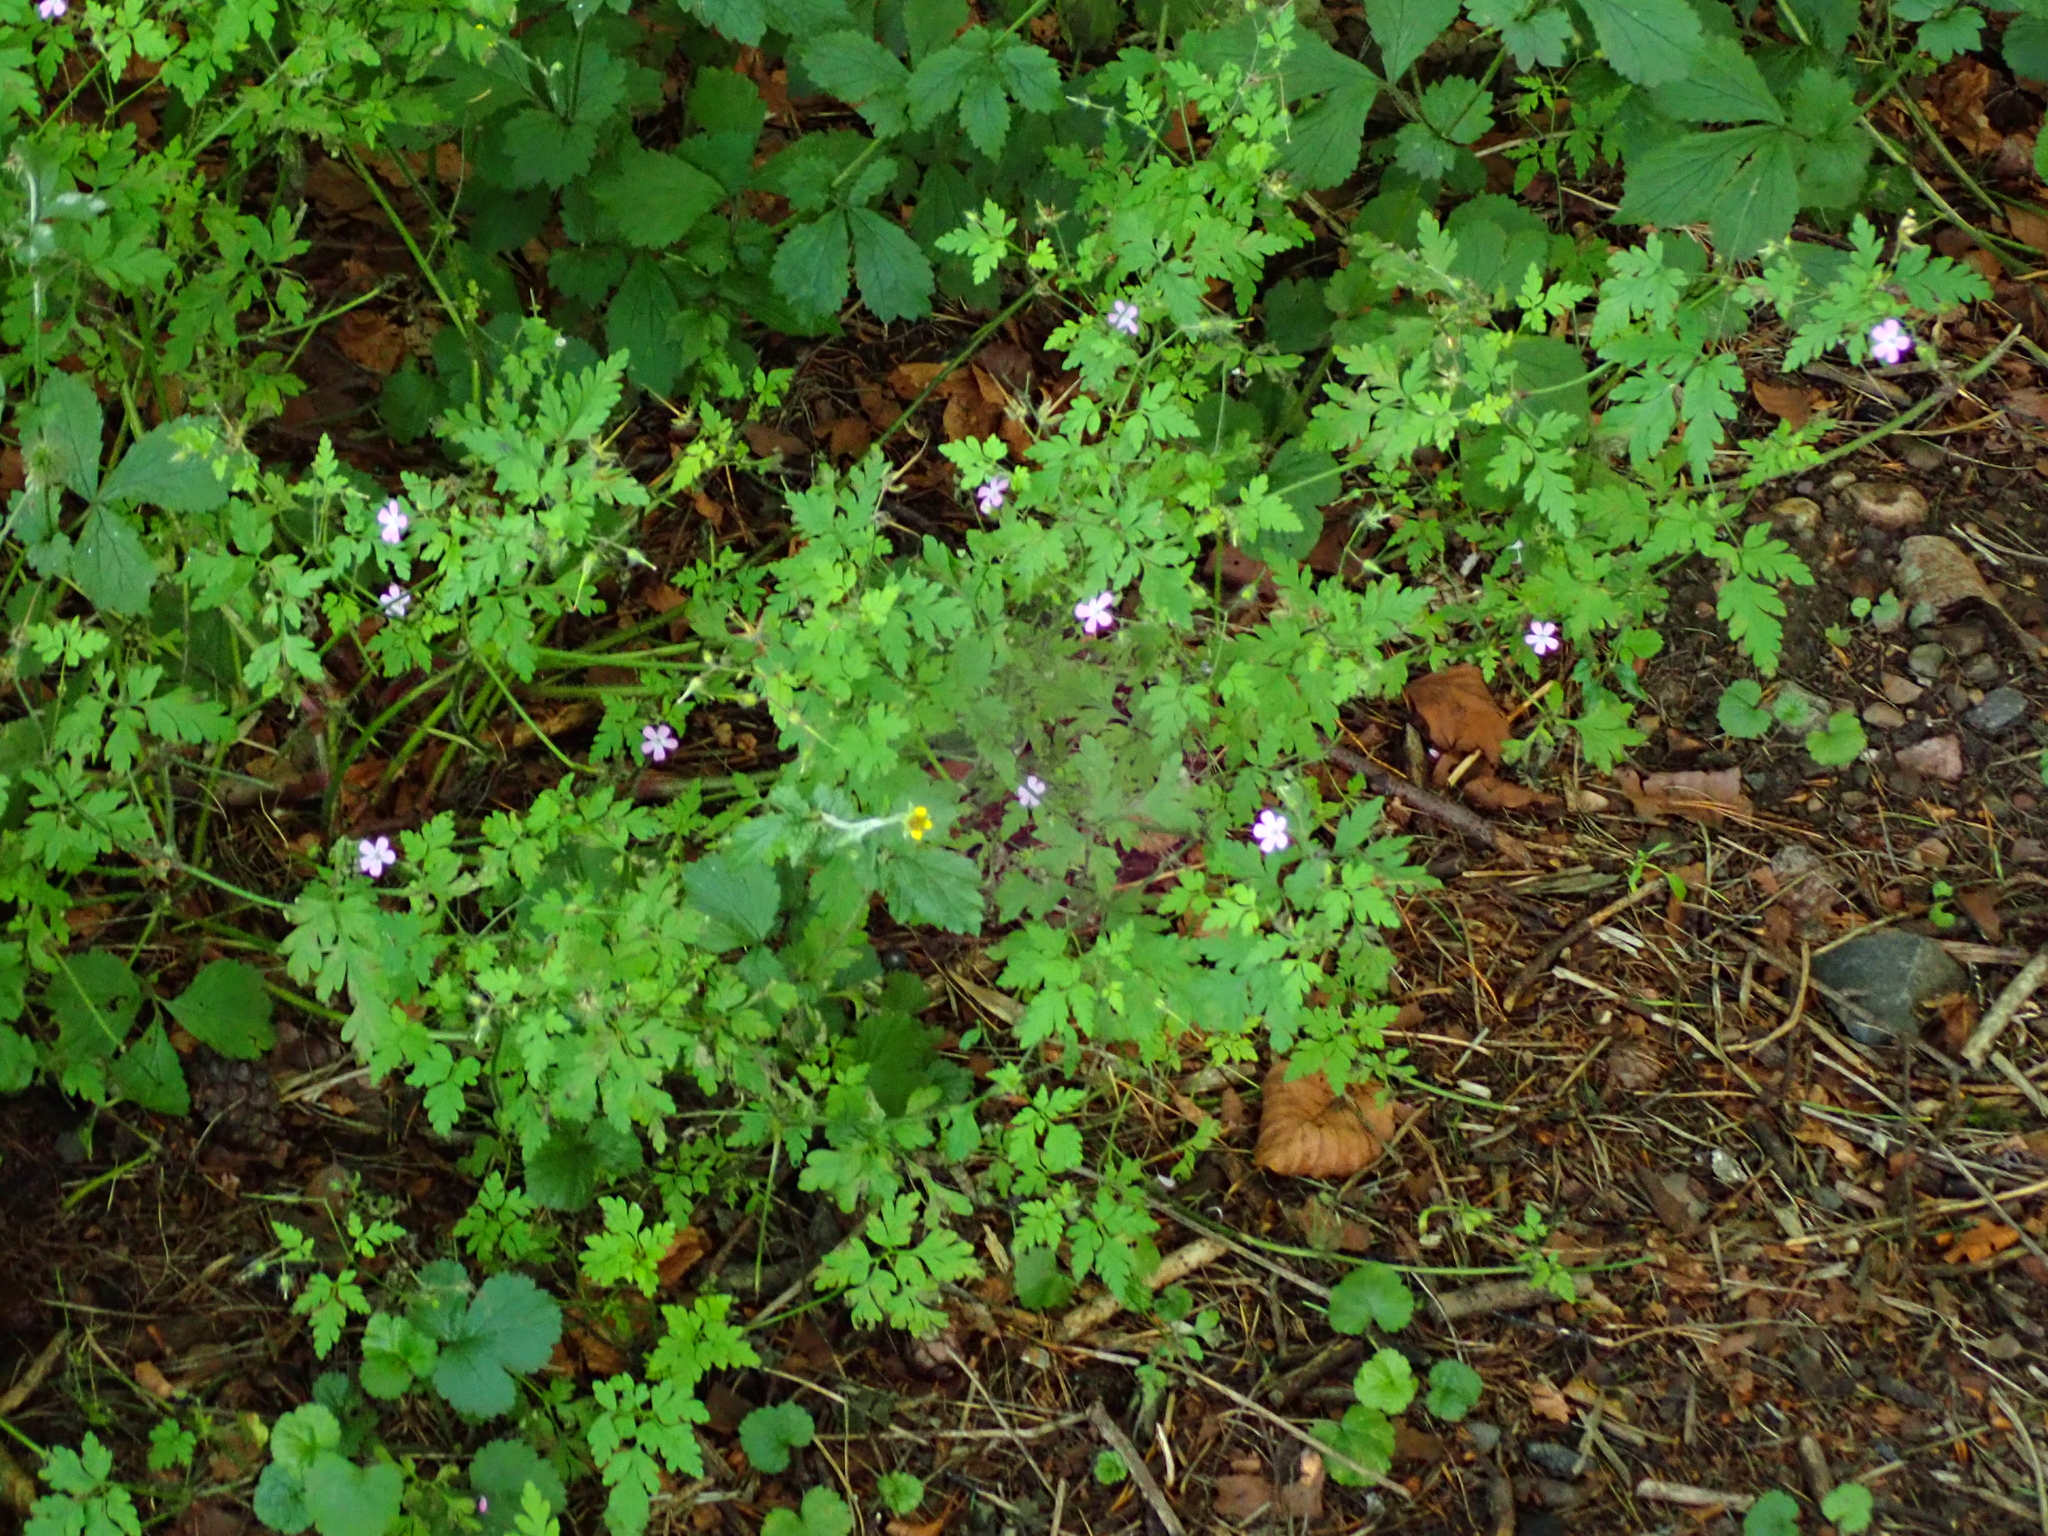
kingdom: Plantae
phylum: Tracheophyta
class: Magnoliopsida
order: Geraniales
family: Geraniaceae
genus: Geranium
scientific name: Geranium robertianum
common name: Herb-robert
